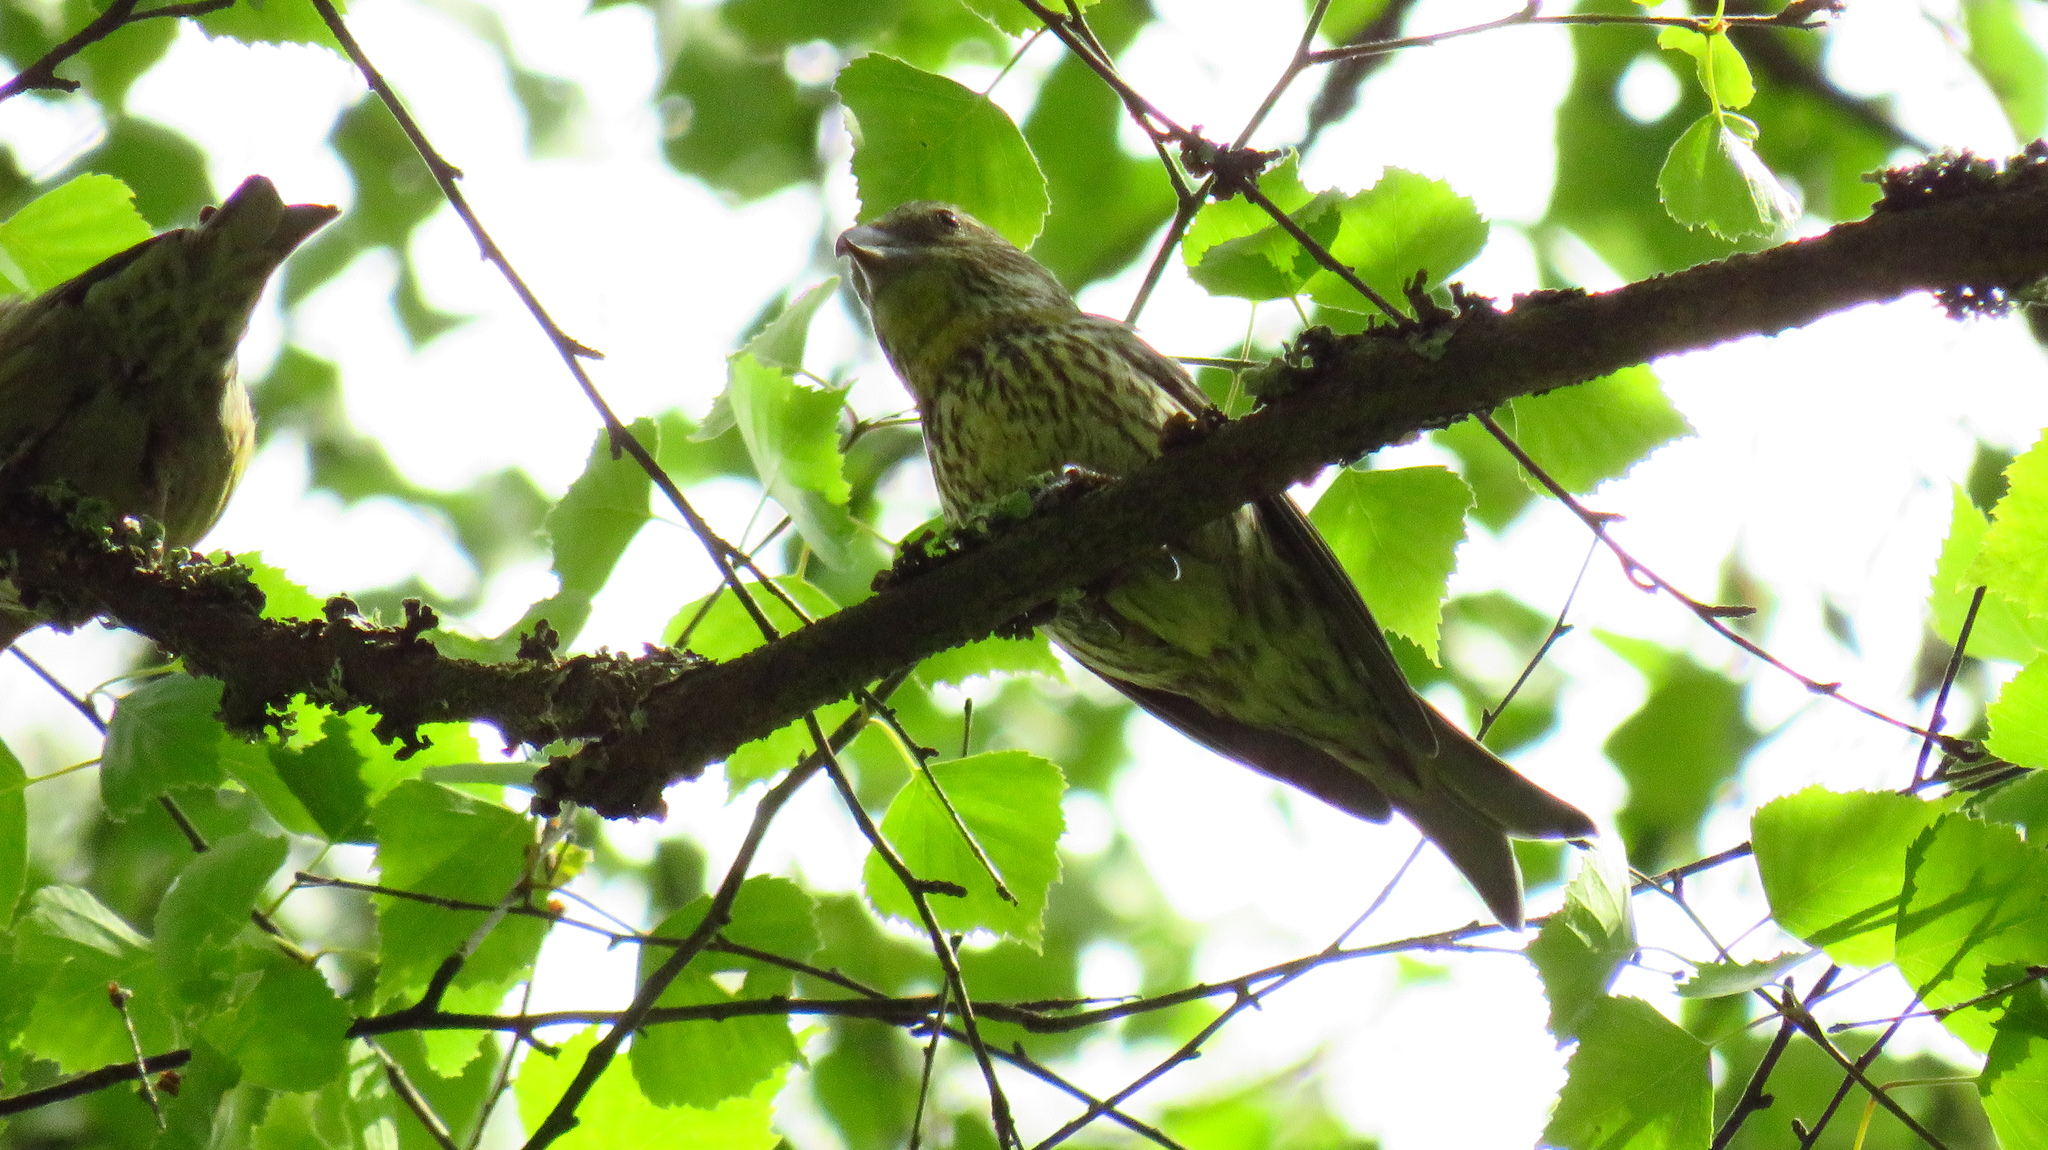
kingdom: Animalia
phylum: Chordata
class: Aves
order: Passeriformes
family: Fringillidae
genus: Loxia
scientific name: Loxia curvirostra
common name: Red crossbill
